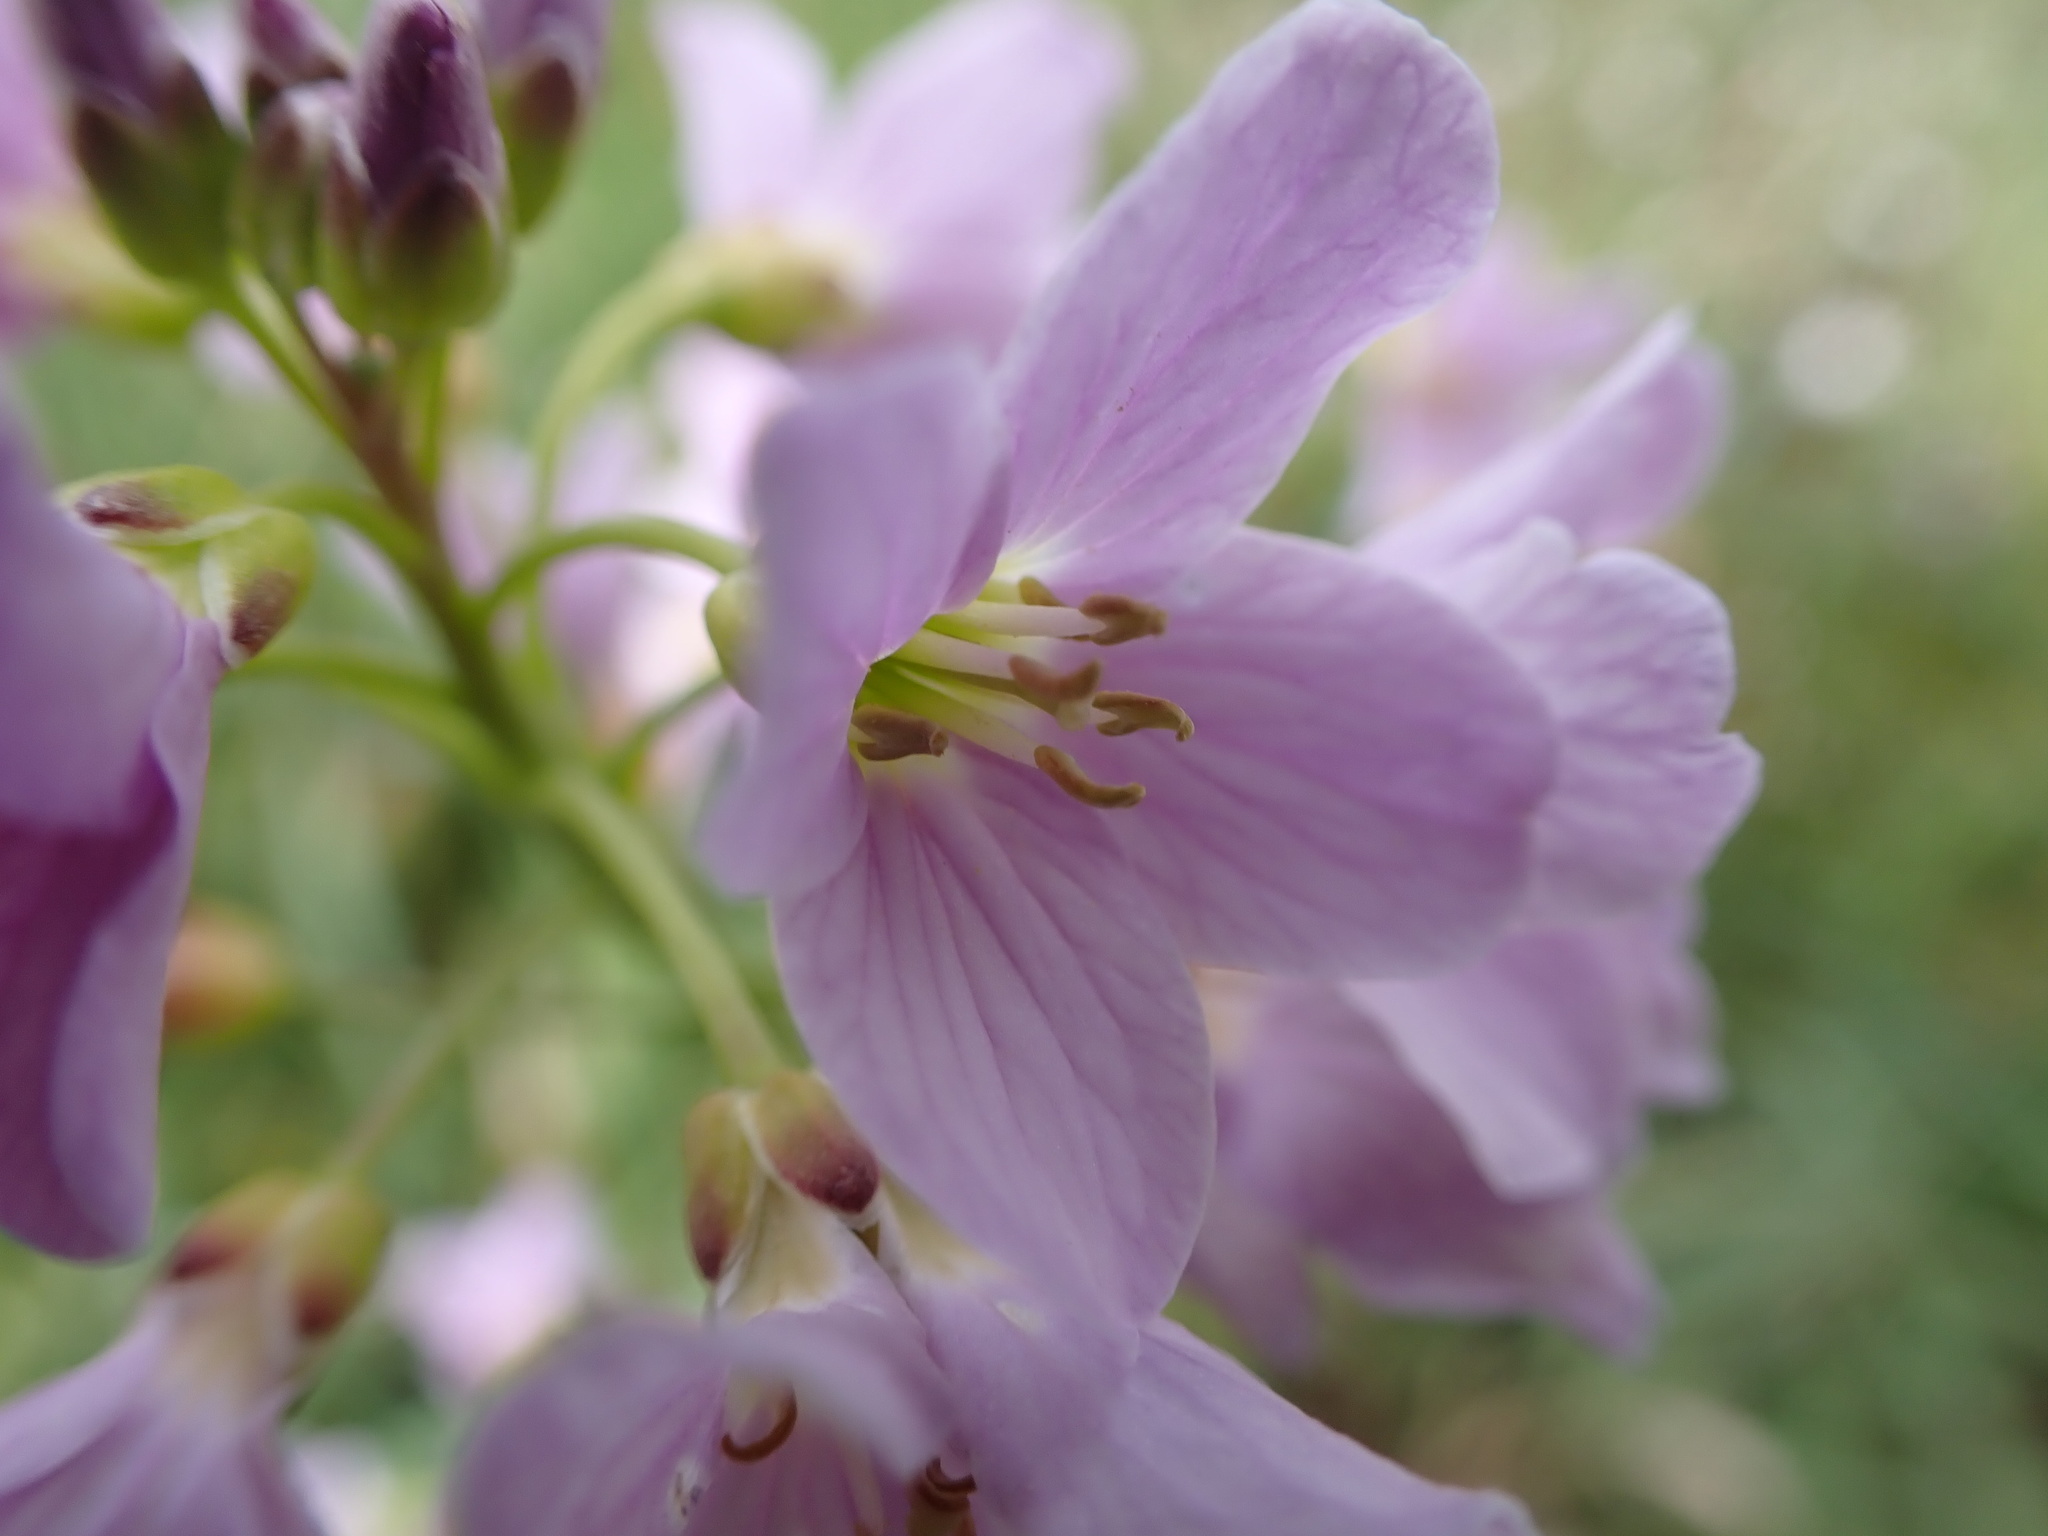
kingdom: Plantae
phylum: Tracheophyta
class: Magnoliopsida
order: Brassicales
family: Brassicaceae
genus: Cardamine
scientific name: Cardamine pratensis
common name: Cuckoo flower
